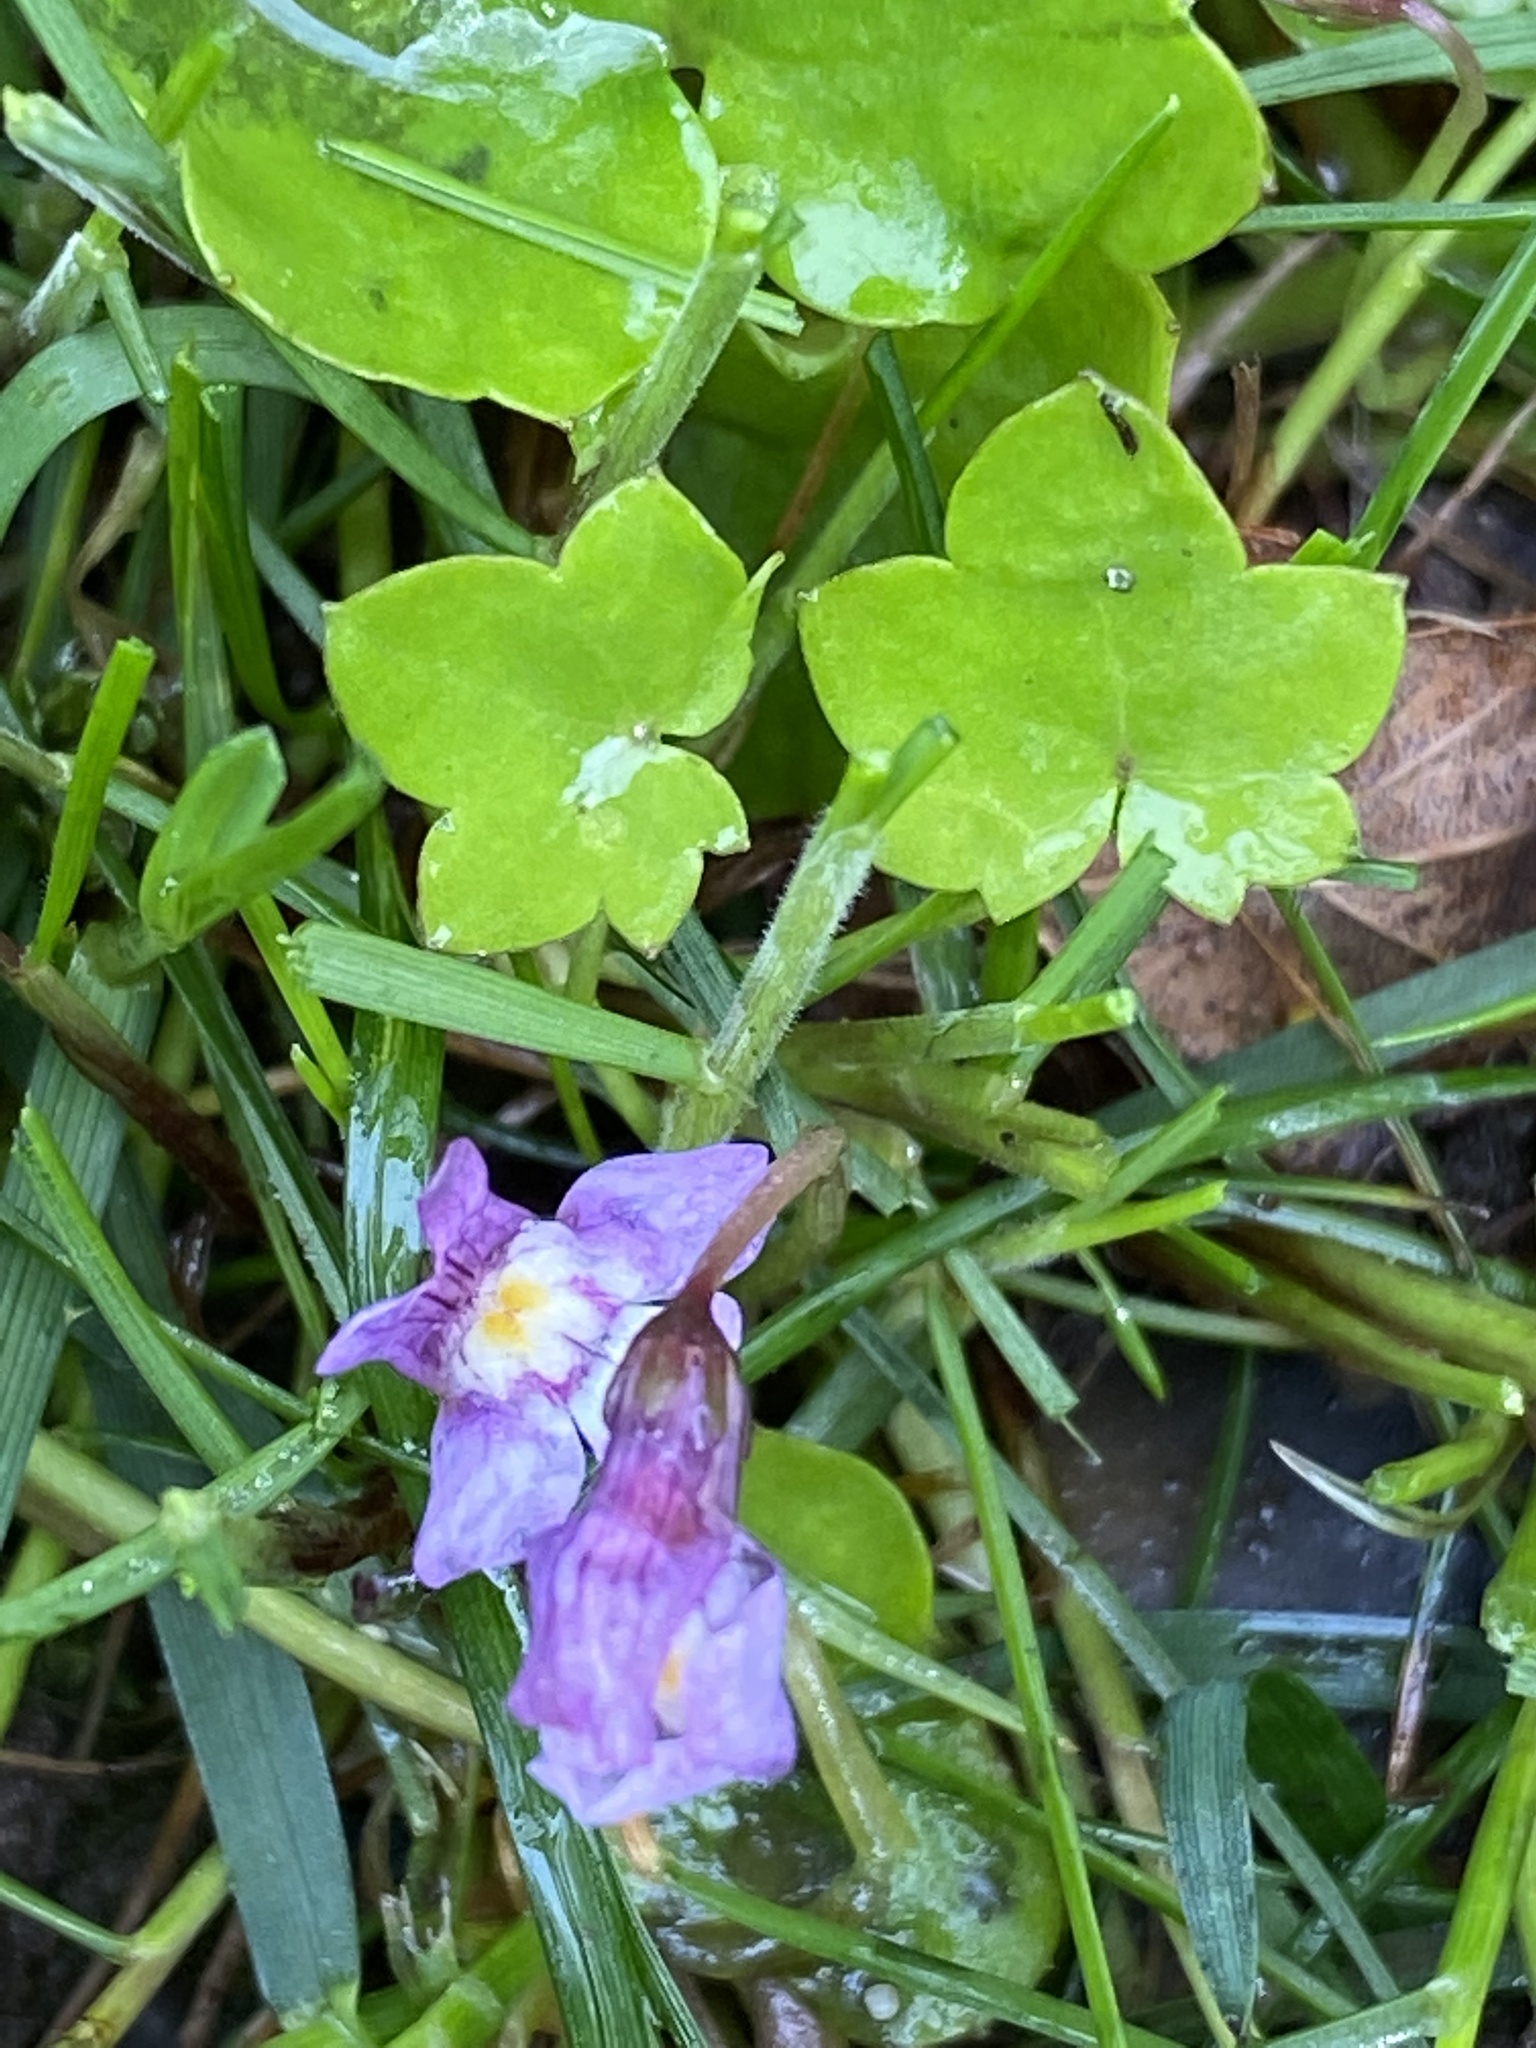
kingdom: Plantae
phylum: Tracheophyta
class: Magnoliopsida
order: Lamiales
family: Plantaginaceae
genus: Cymbalaria
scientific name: Cymbalaria muralis
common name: Ivy-leaved toadflax
